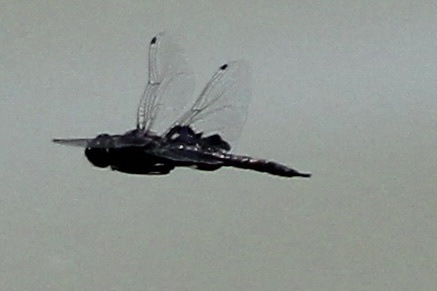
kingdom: Animalia
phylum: Arthropoda
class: Insecta
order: Odonata
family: Libellulidae
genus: Tramea
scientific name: Tramea lacerata
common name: Black saddlebags
